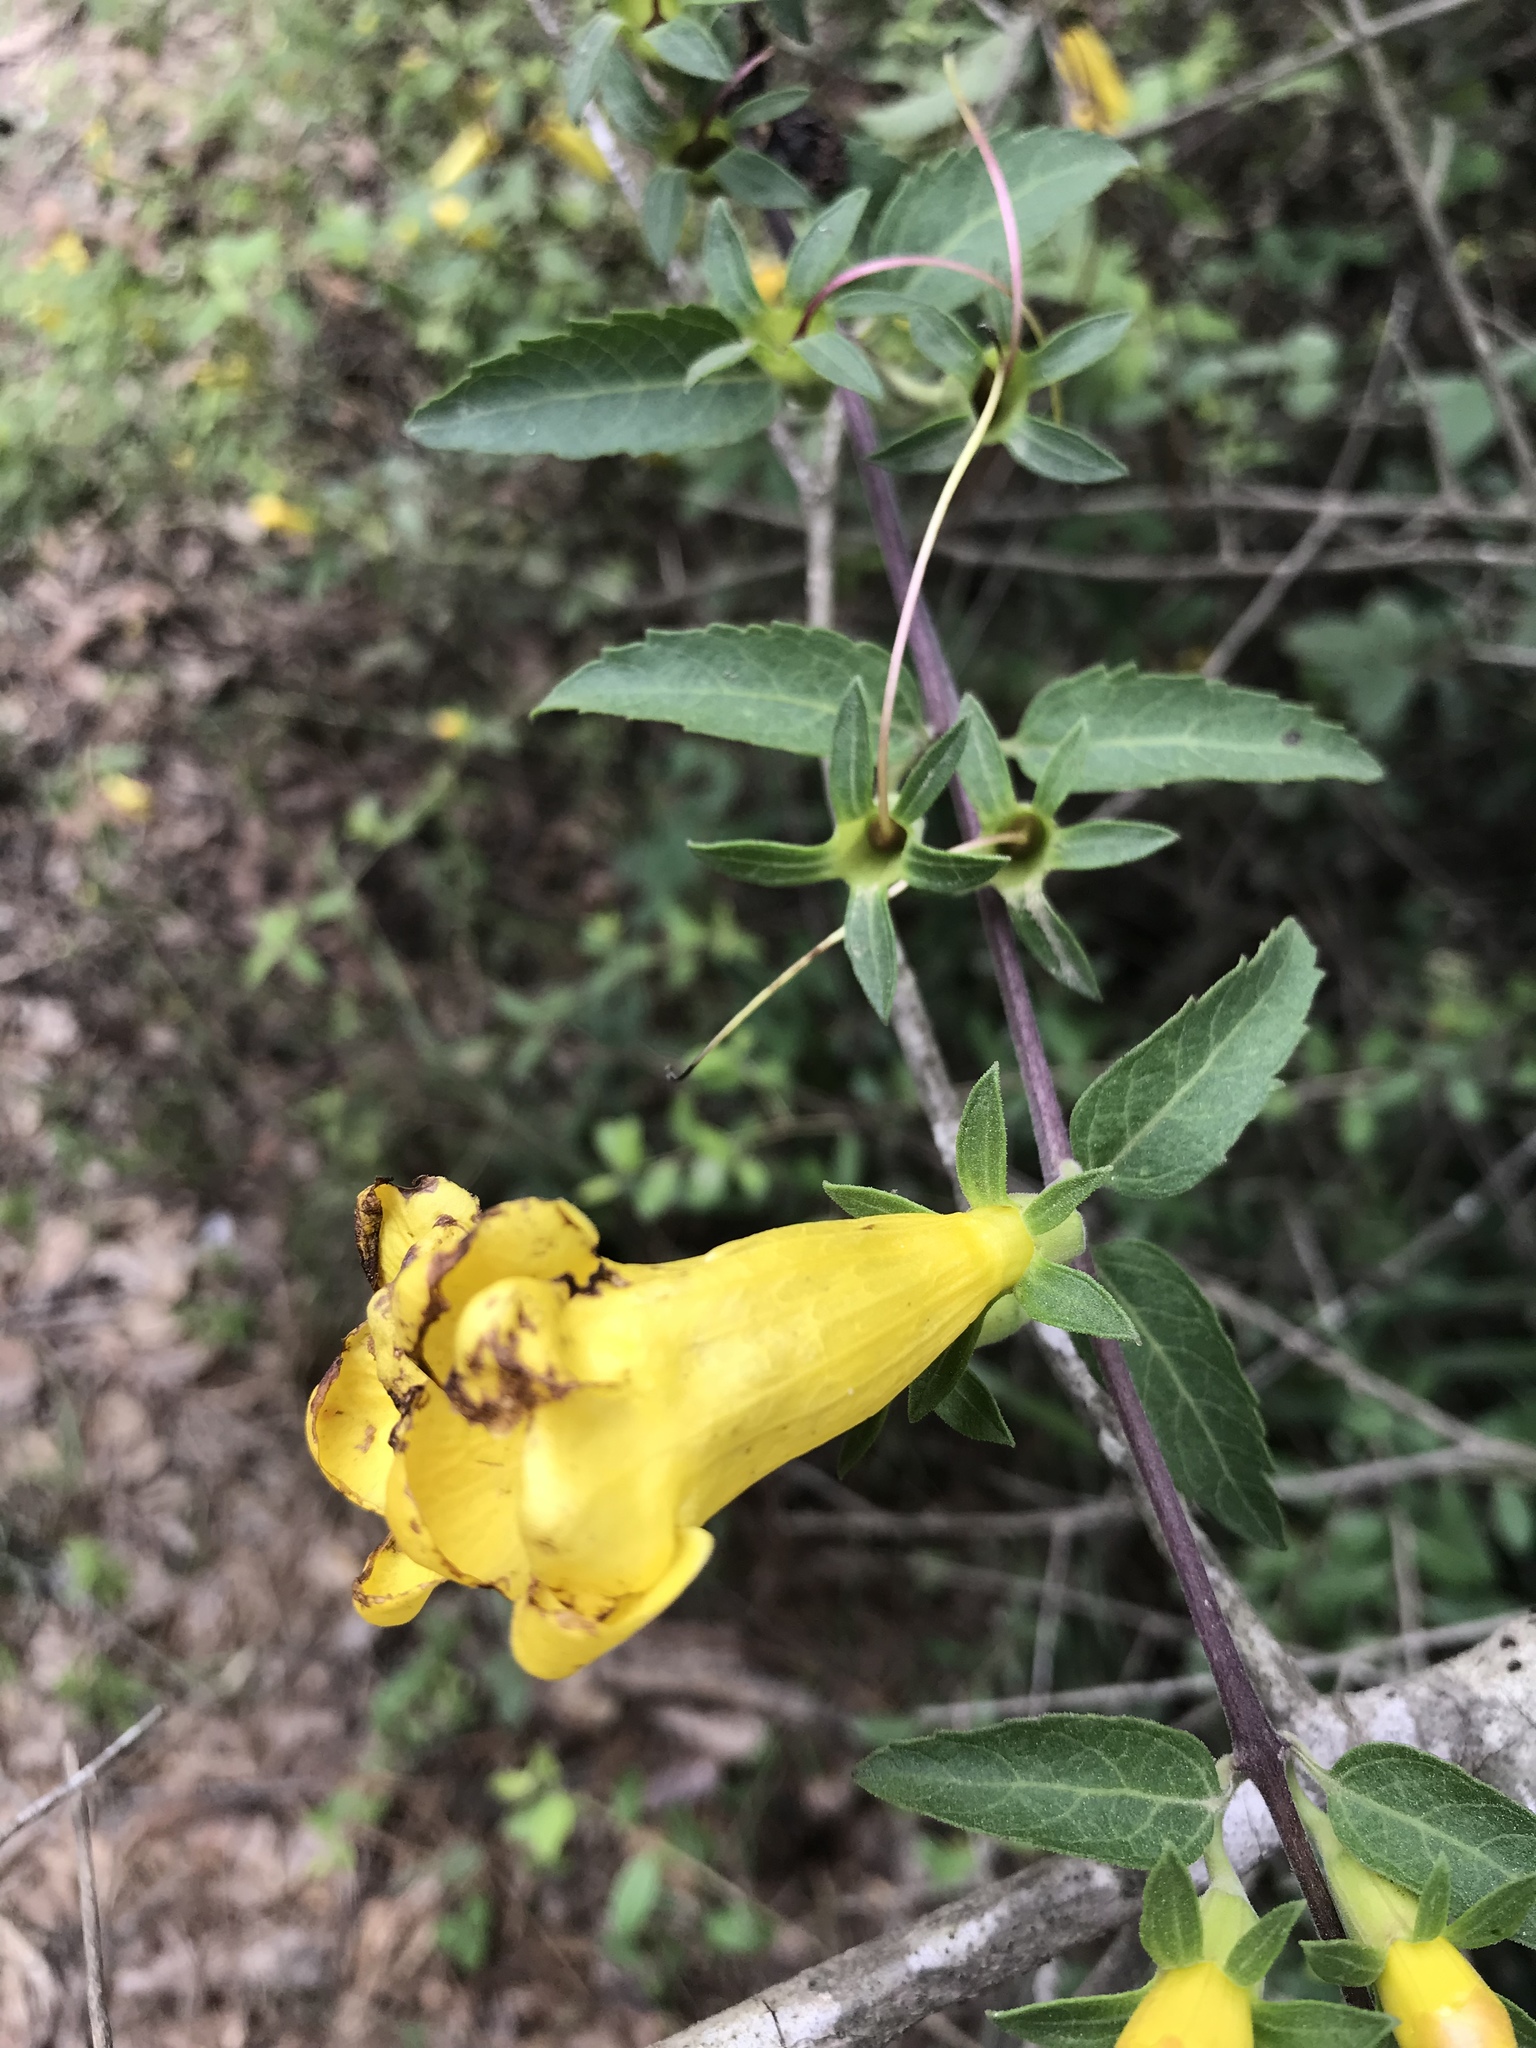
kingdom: Plantae
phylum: Tracheophyta
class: Magnoliopsida
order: Lamiales
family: Orobanchaceae
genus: Aureolaria
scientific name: Aureolaria grandiflora
